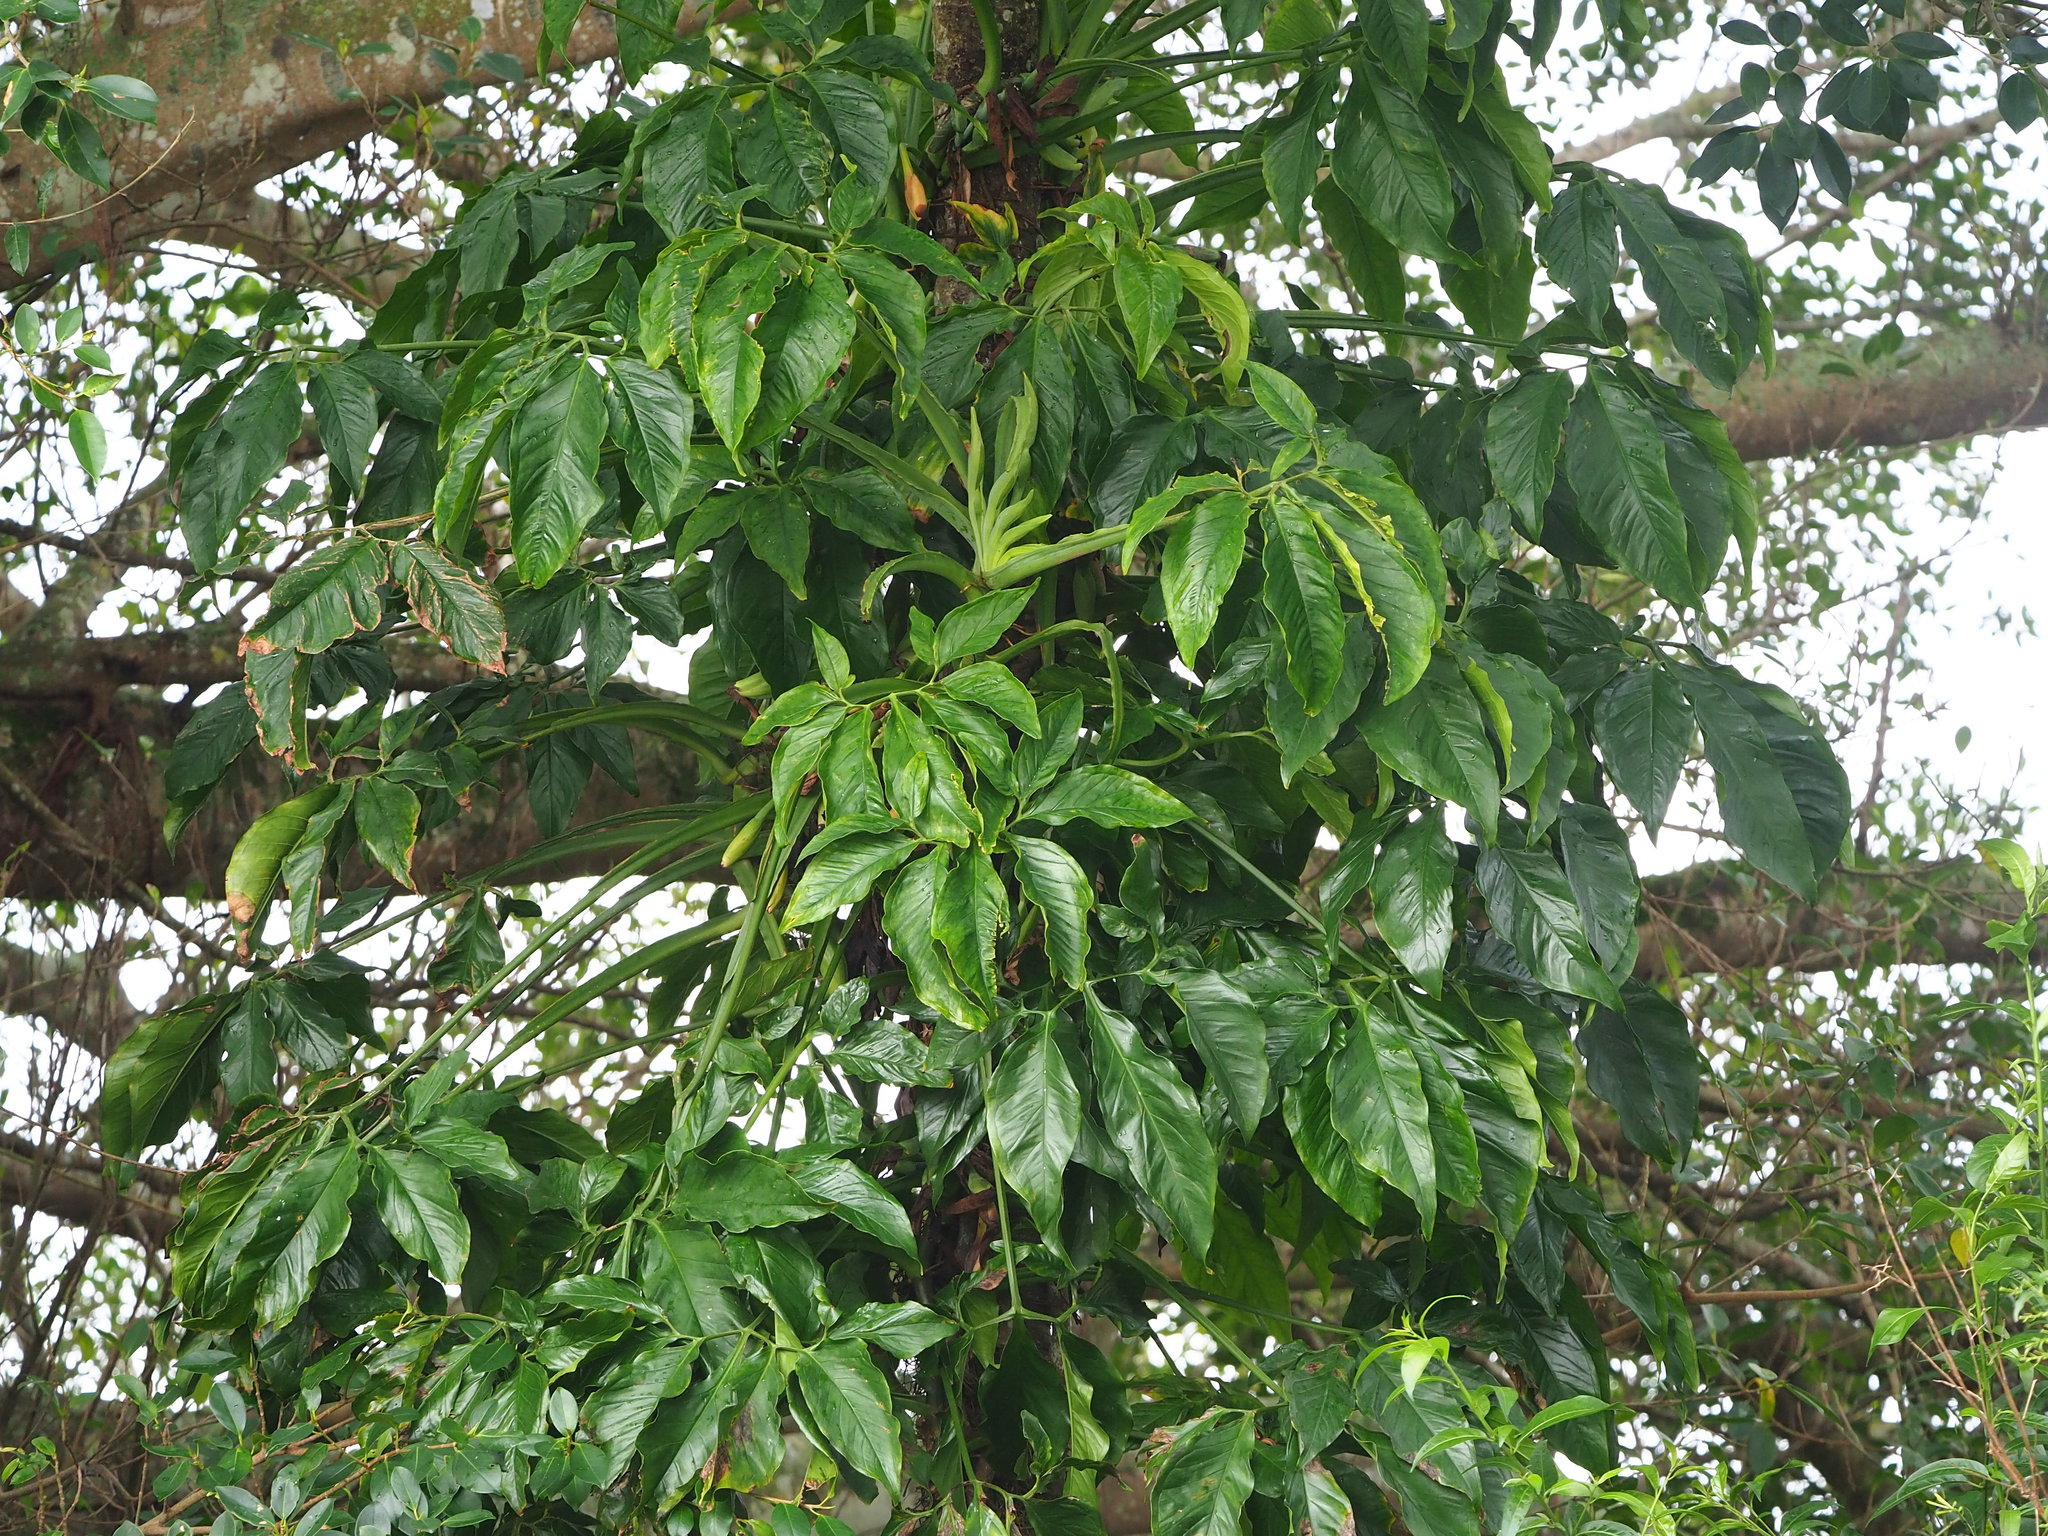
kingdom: Plantae
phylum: Tracheophyta
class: Liliopsida
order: Alismatales
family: Araceae
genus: Syngonium
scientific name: Syngonium angustatum
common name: Fivefingers
